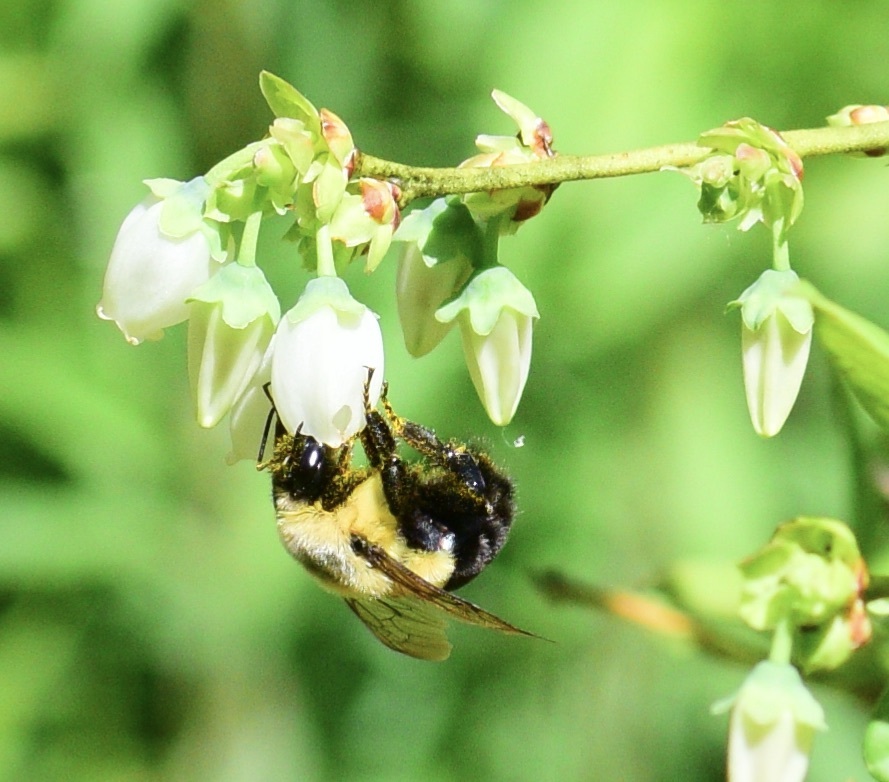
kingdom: Animalia
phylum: Arthropoda
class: Insecta
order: Hymenoptera
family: Apidae
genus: Bombus
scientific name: Bombus impatiens
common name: Common eastern bumble bee
